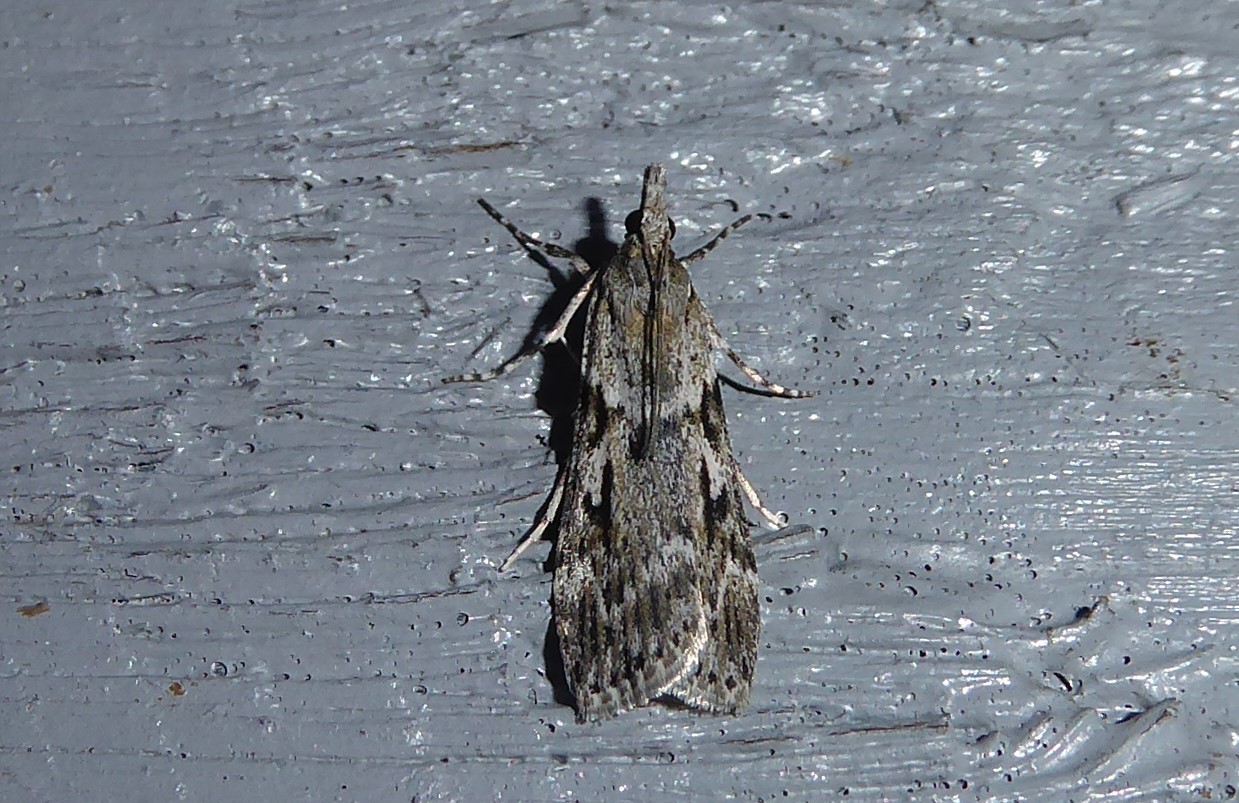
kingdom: Animalia
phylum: Arthropoda
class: Insecta
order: Lepidoptera
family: Crambidae
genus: Scoparia
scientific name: Scoparia halopis
